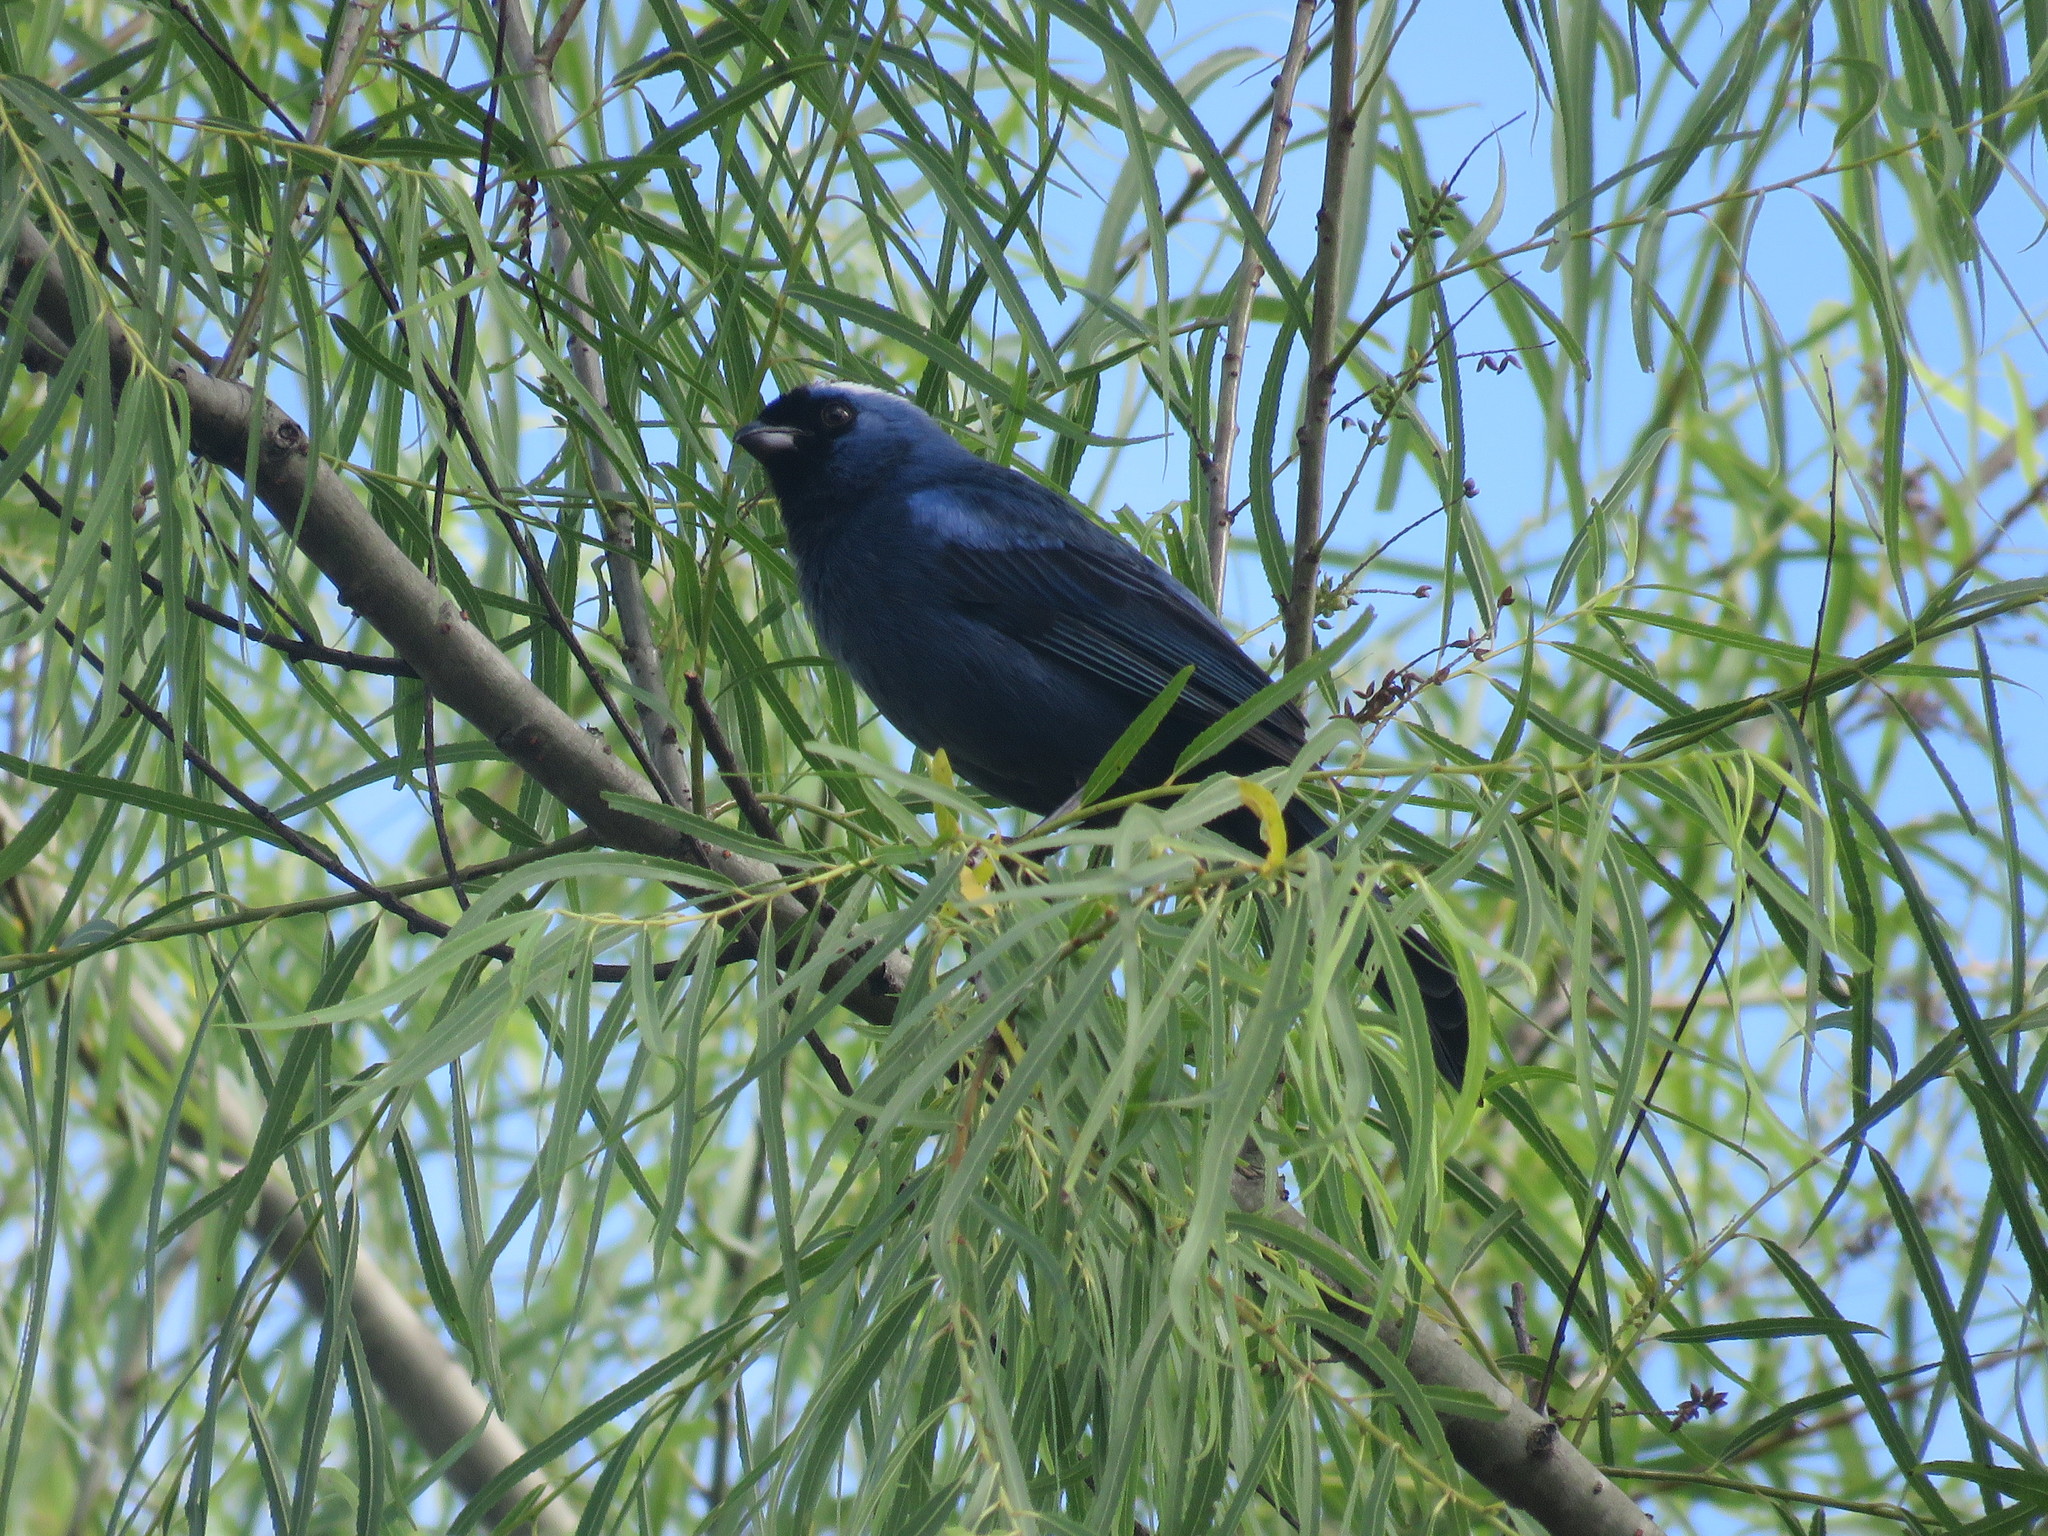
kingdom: Animalia
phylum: Chordata
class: Aves
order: Passeriformes
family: Thraupidae
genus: Stephanophorus
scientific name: Stephanophorus diadematus
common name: Diademed tanager
